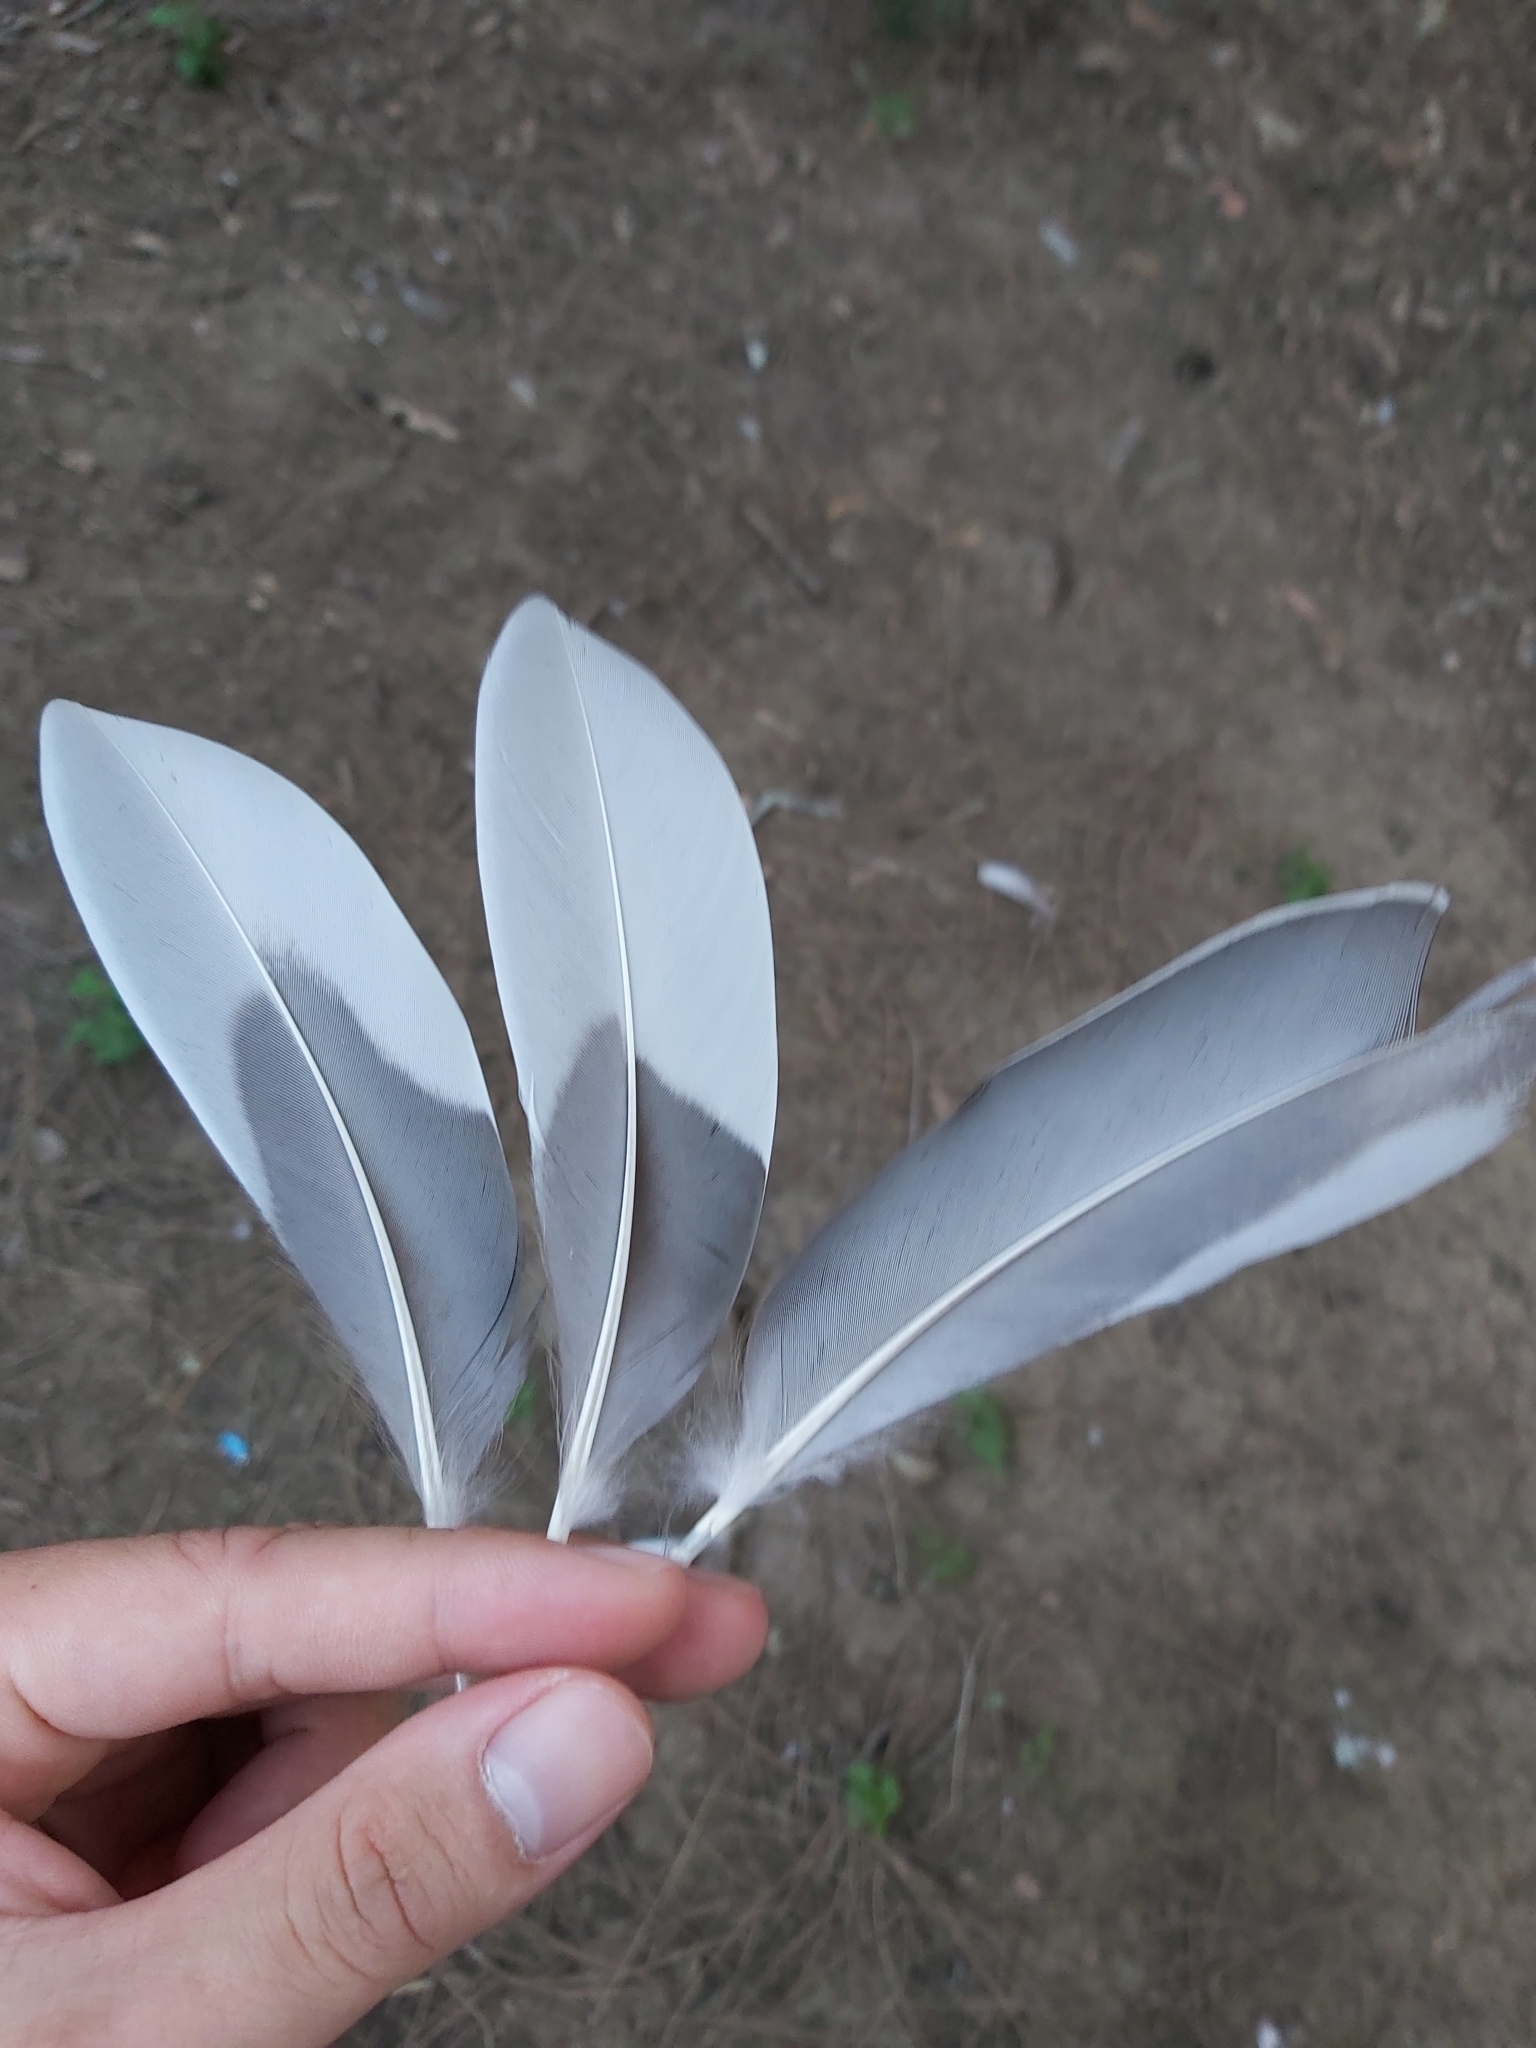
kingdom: Animalia
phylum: Chordata
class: Aves
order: Anseriformes
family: Anatidae
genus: Chenonetta
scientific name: Chenonetta jubata
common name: Maned duck
